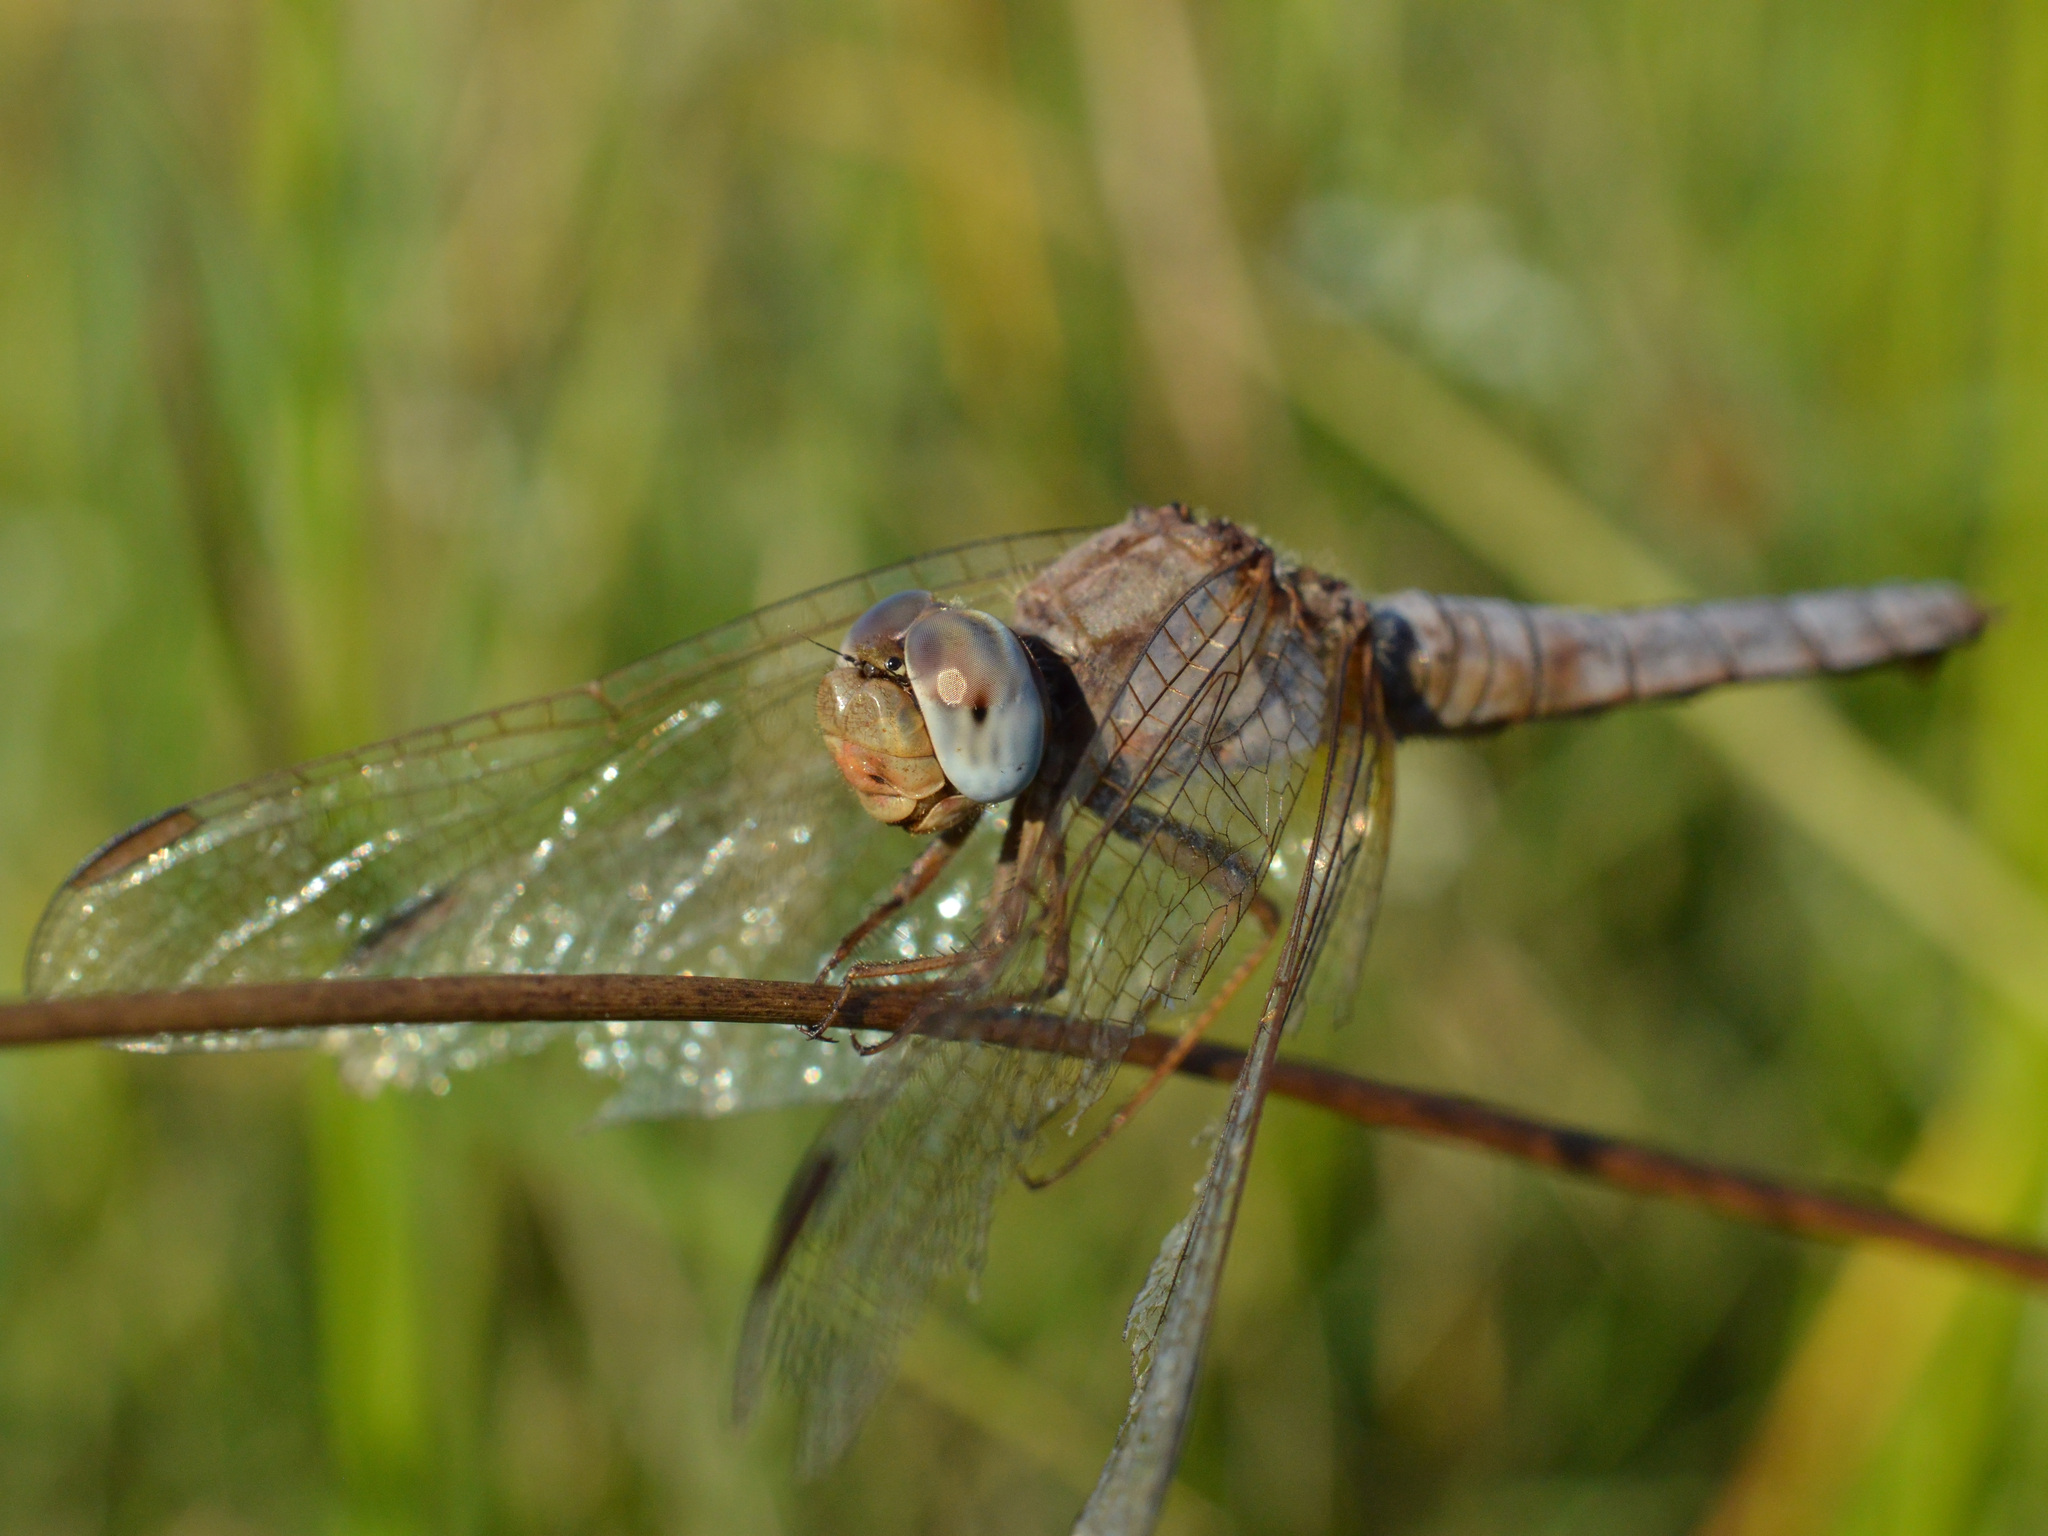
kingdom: Animalia
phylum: Arthropoda
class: Insecta
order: Odonata
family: Libellulidae
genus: Crocothemis
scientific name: Crocothemis erythraea
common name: Scarlet dragonfly
